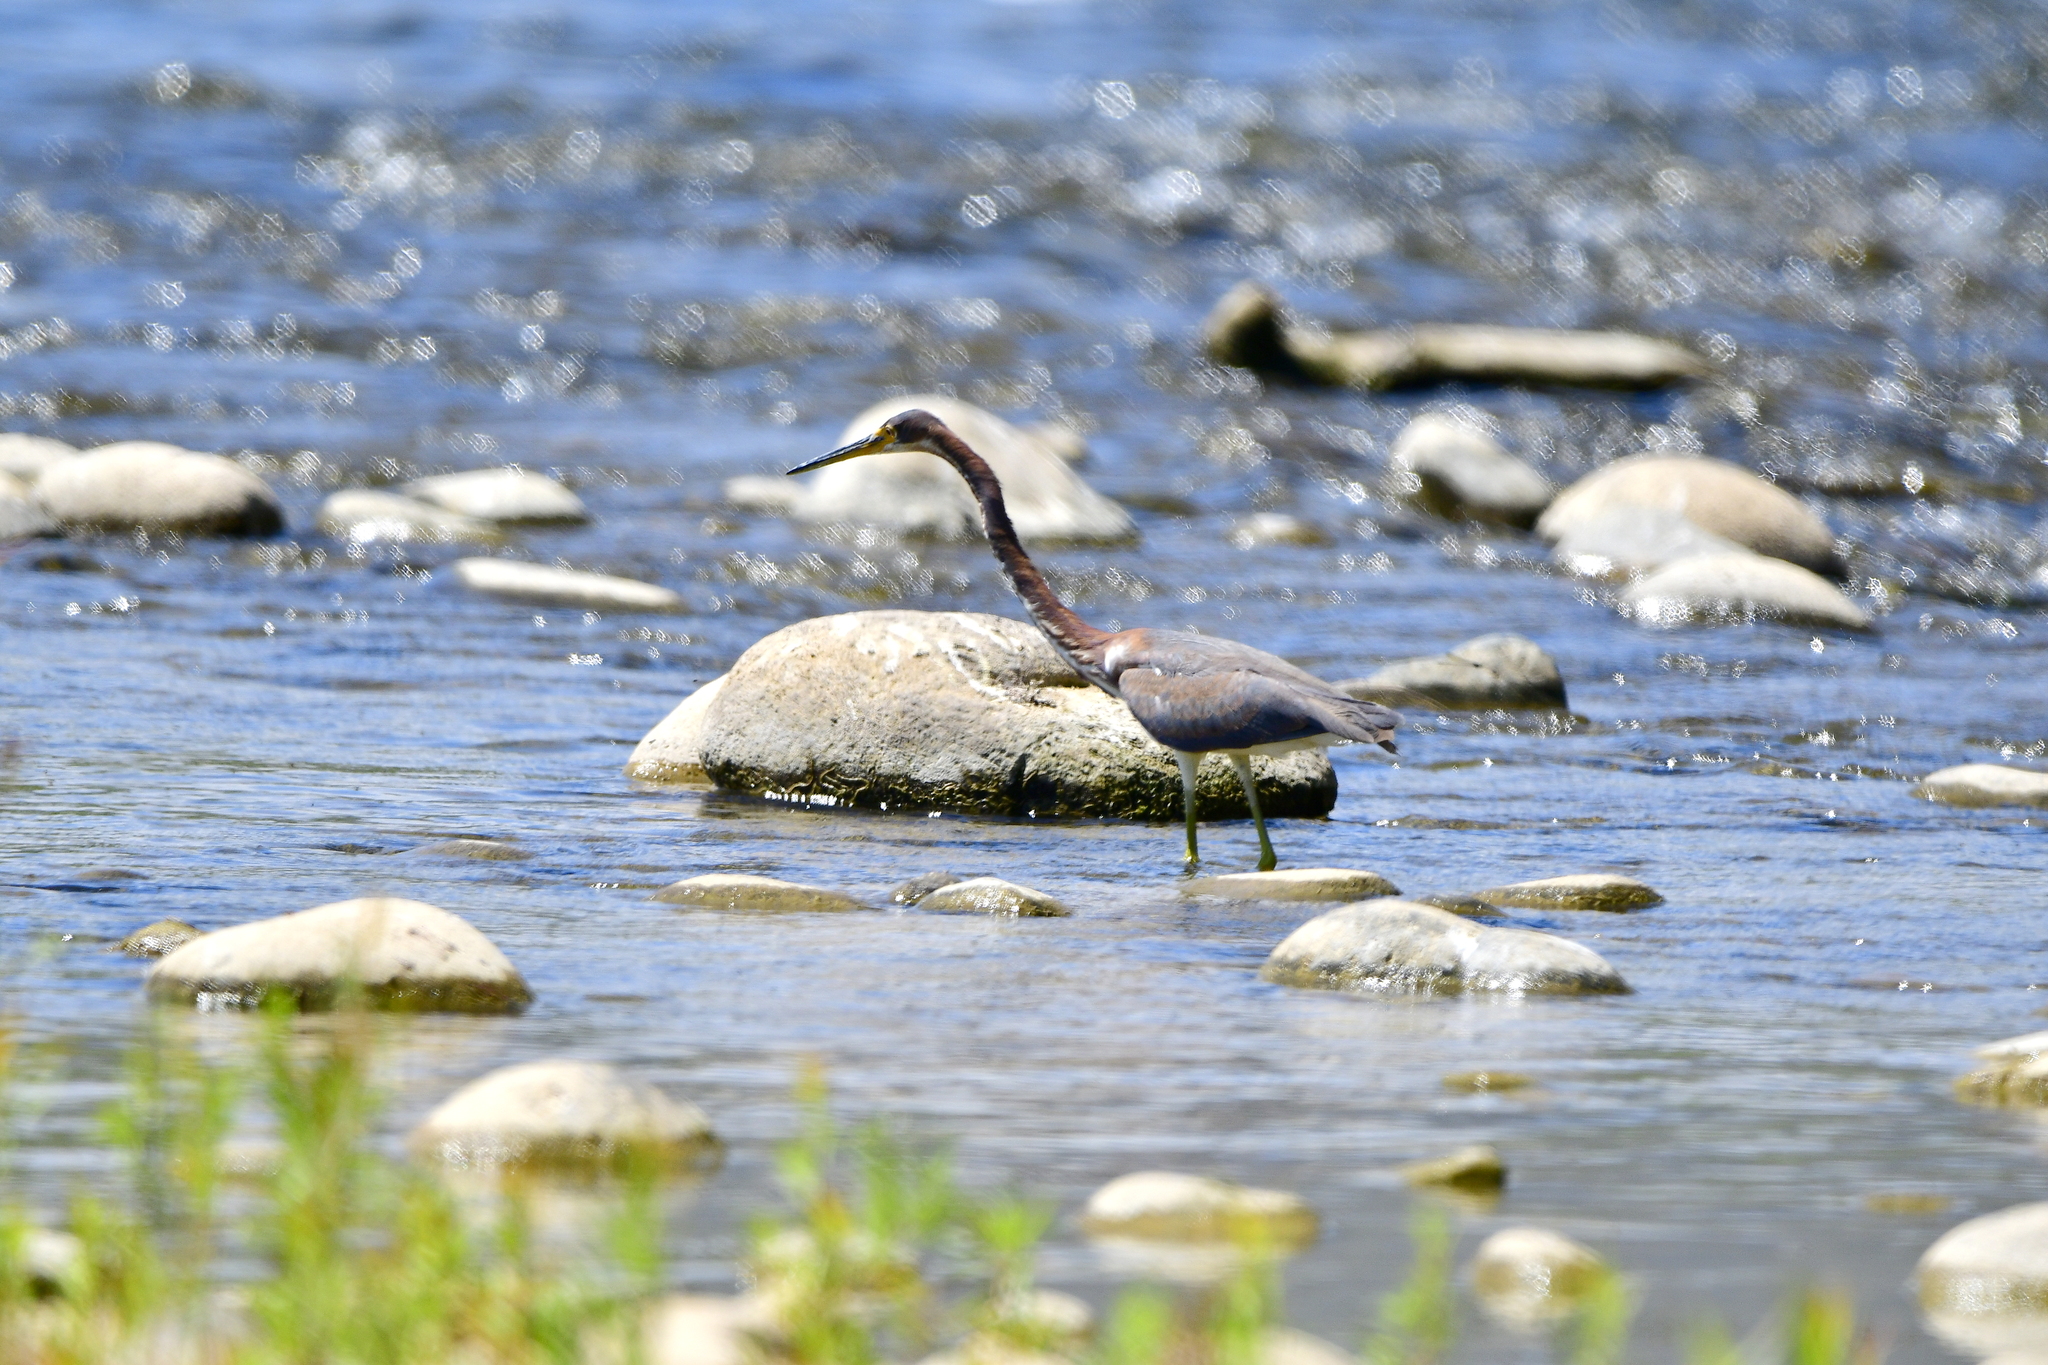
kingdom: Animalia
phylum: Chordata
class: Aves
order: Pelecaniformes
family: Ardeidae
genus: Egretta
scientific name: Egretta tricolor
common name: Tricolored heron
